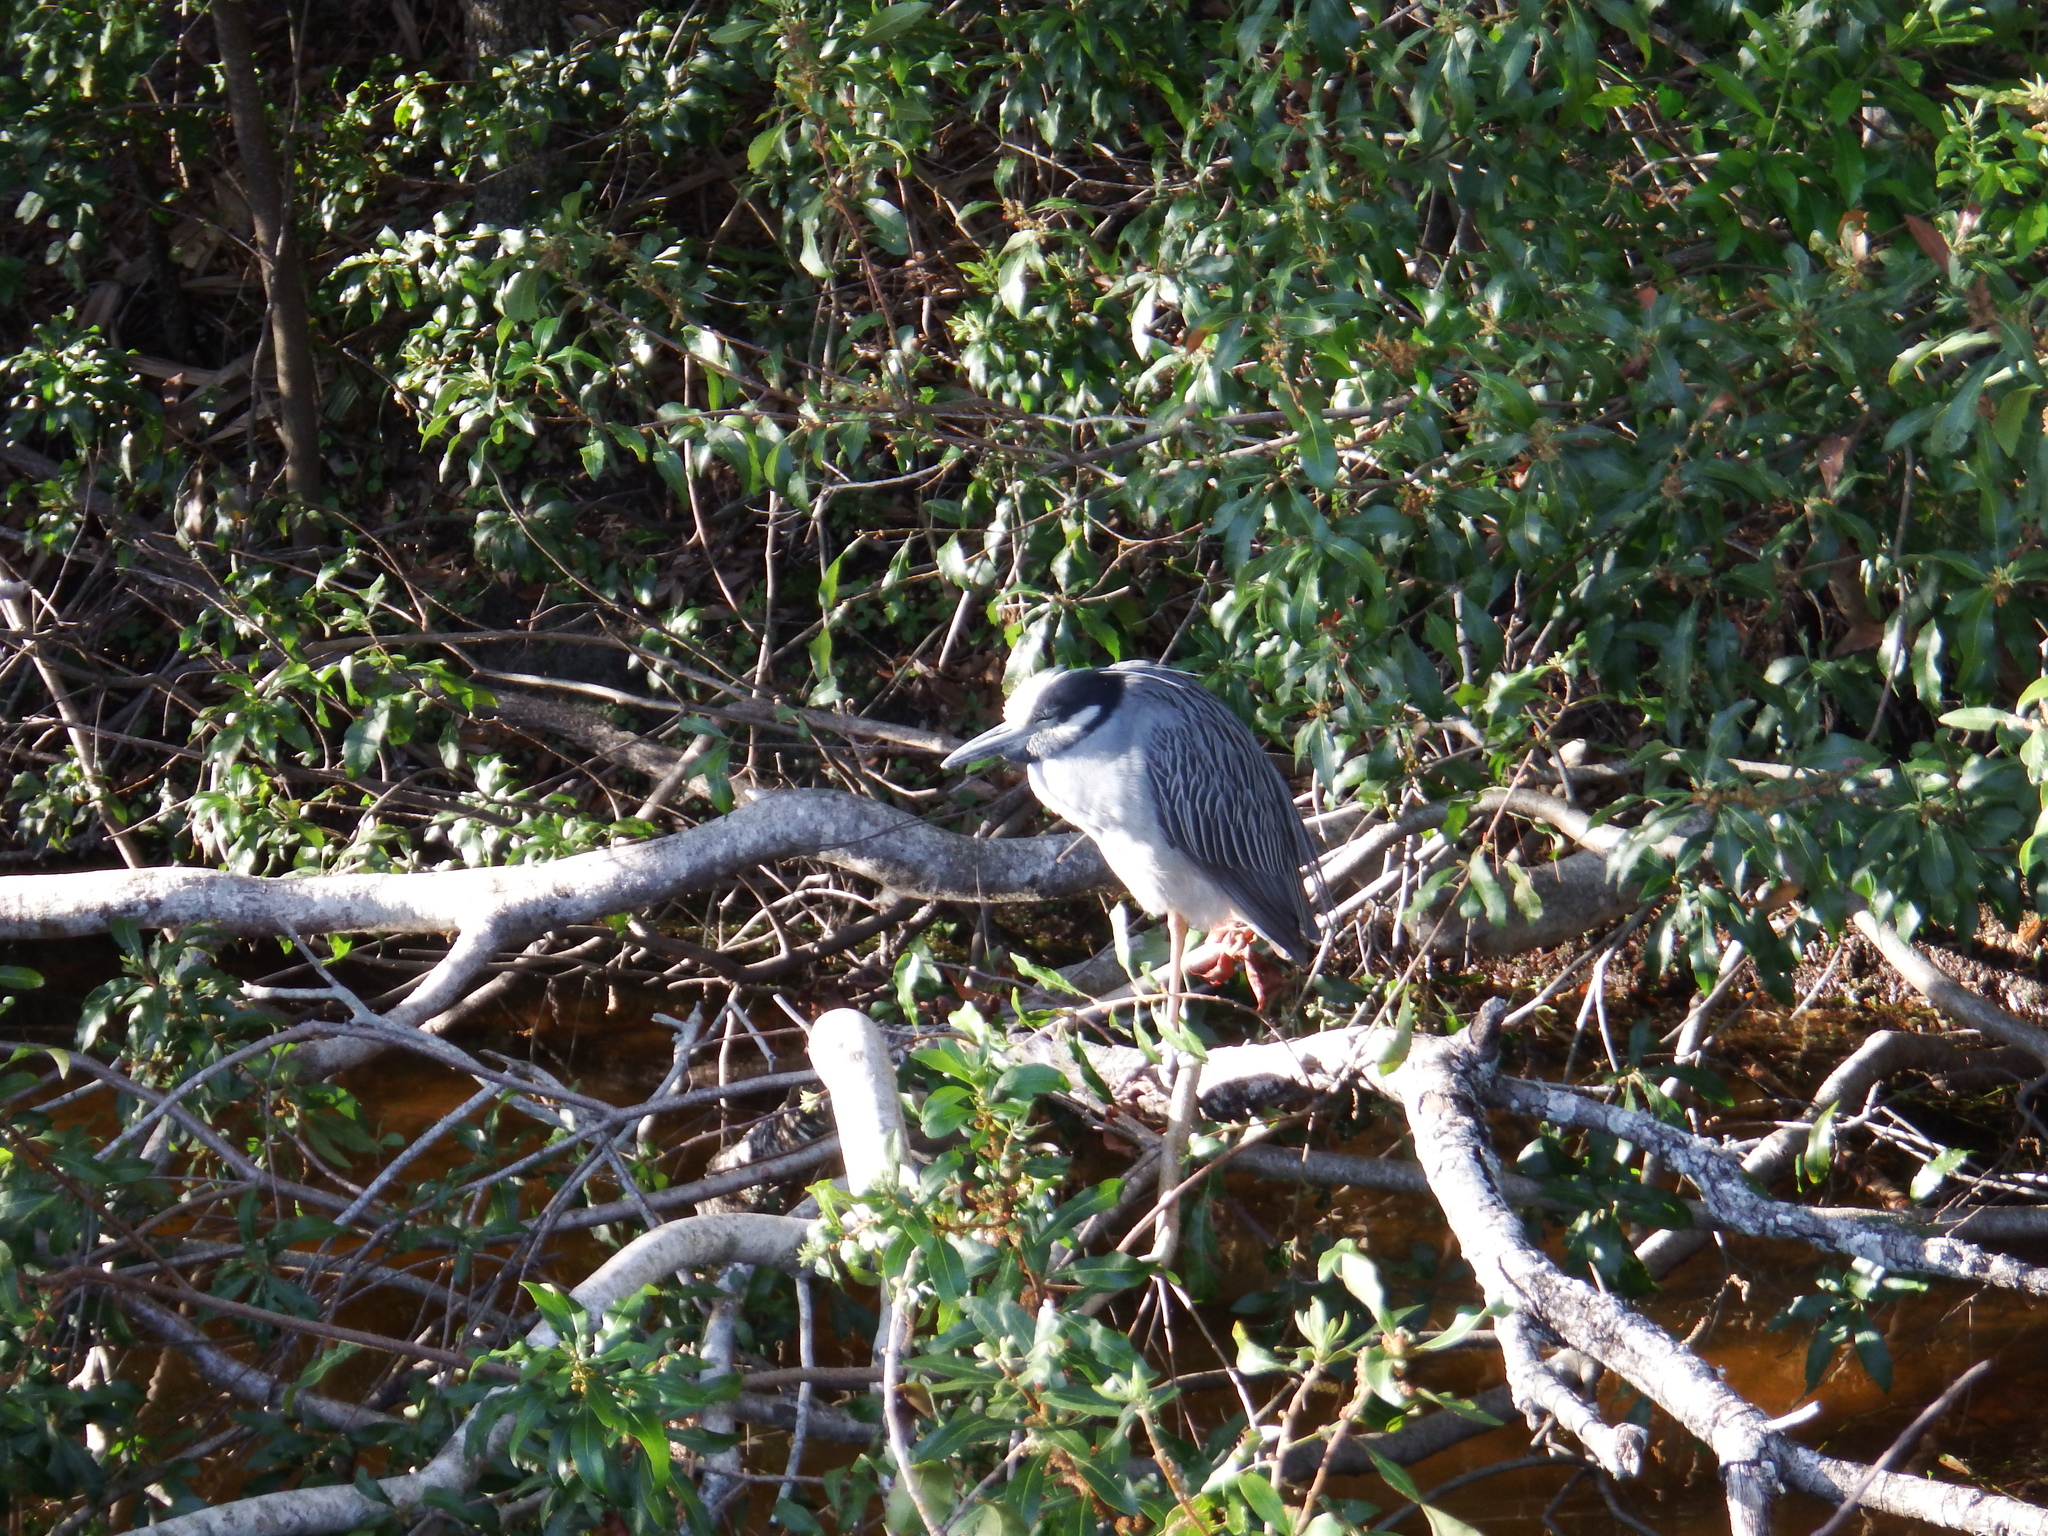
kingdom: Animalia
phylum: Chordata
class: Aves
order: Pelecaniformes
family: Ardeidae
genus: Nyctanassa
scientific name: Nyctanassa violacea
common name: Yellow-crowned night heron
